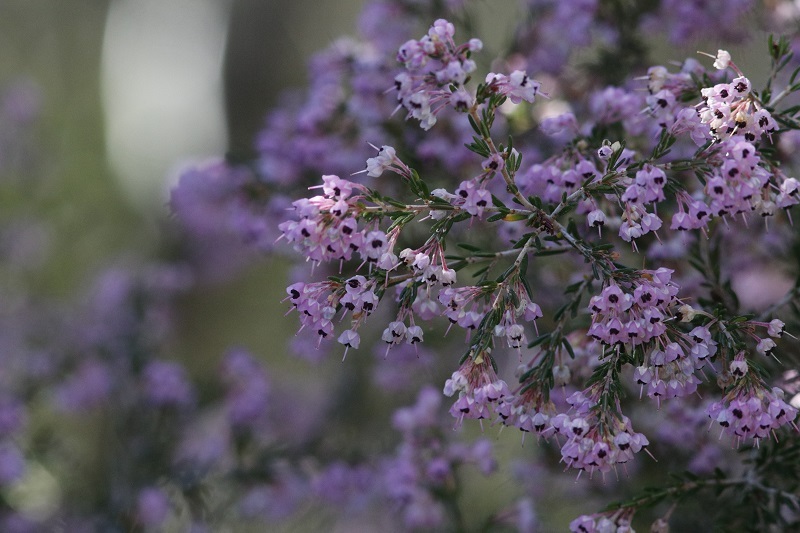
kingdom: Plantae
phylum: Tracheophyta
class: Magnoliopsida
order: Ericales
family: Ericaceae
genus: Erica
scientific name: Erica canaliculata
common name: Hairy grey heather
